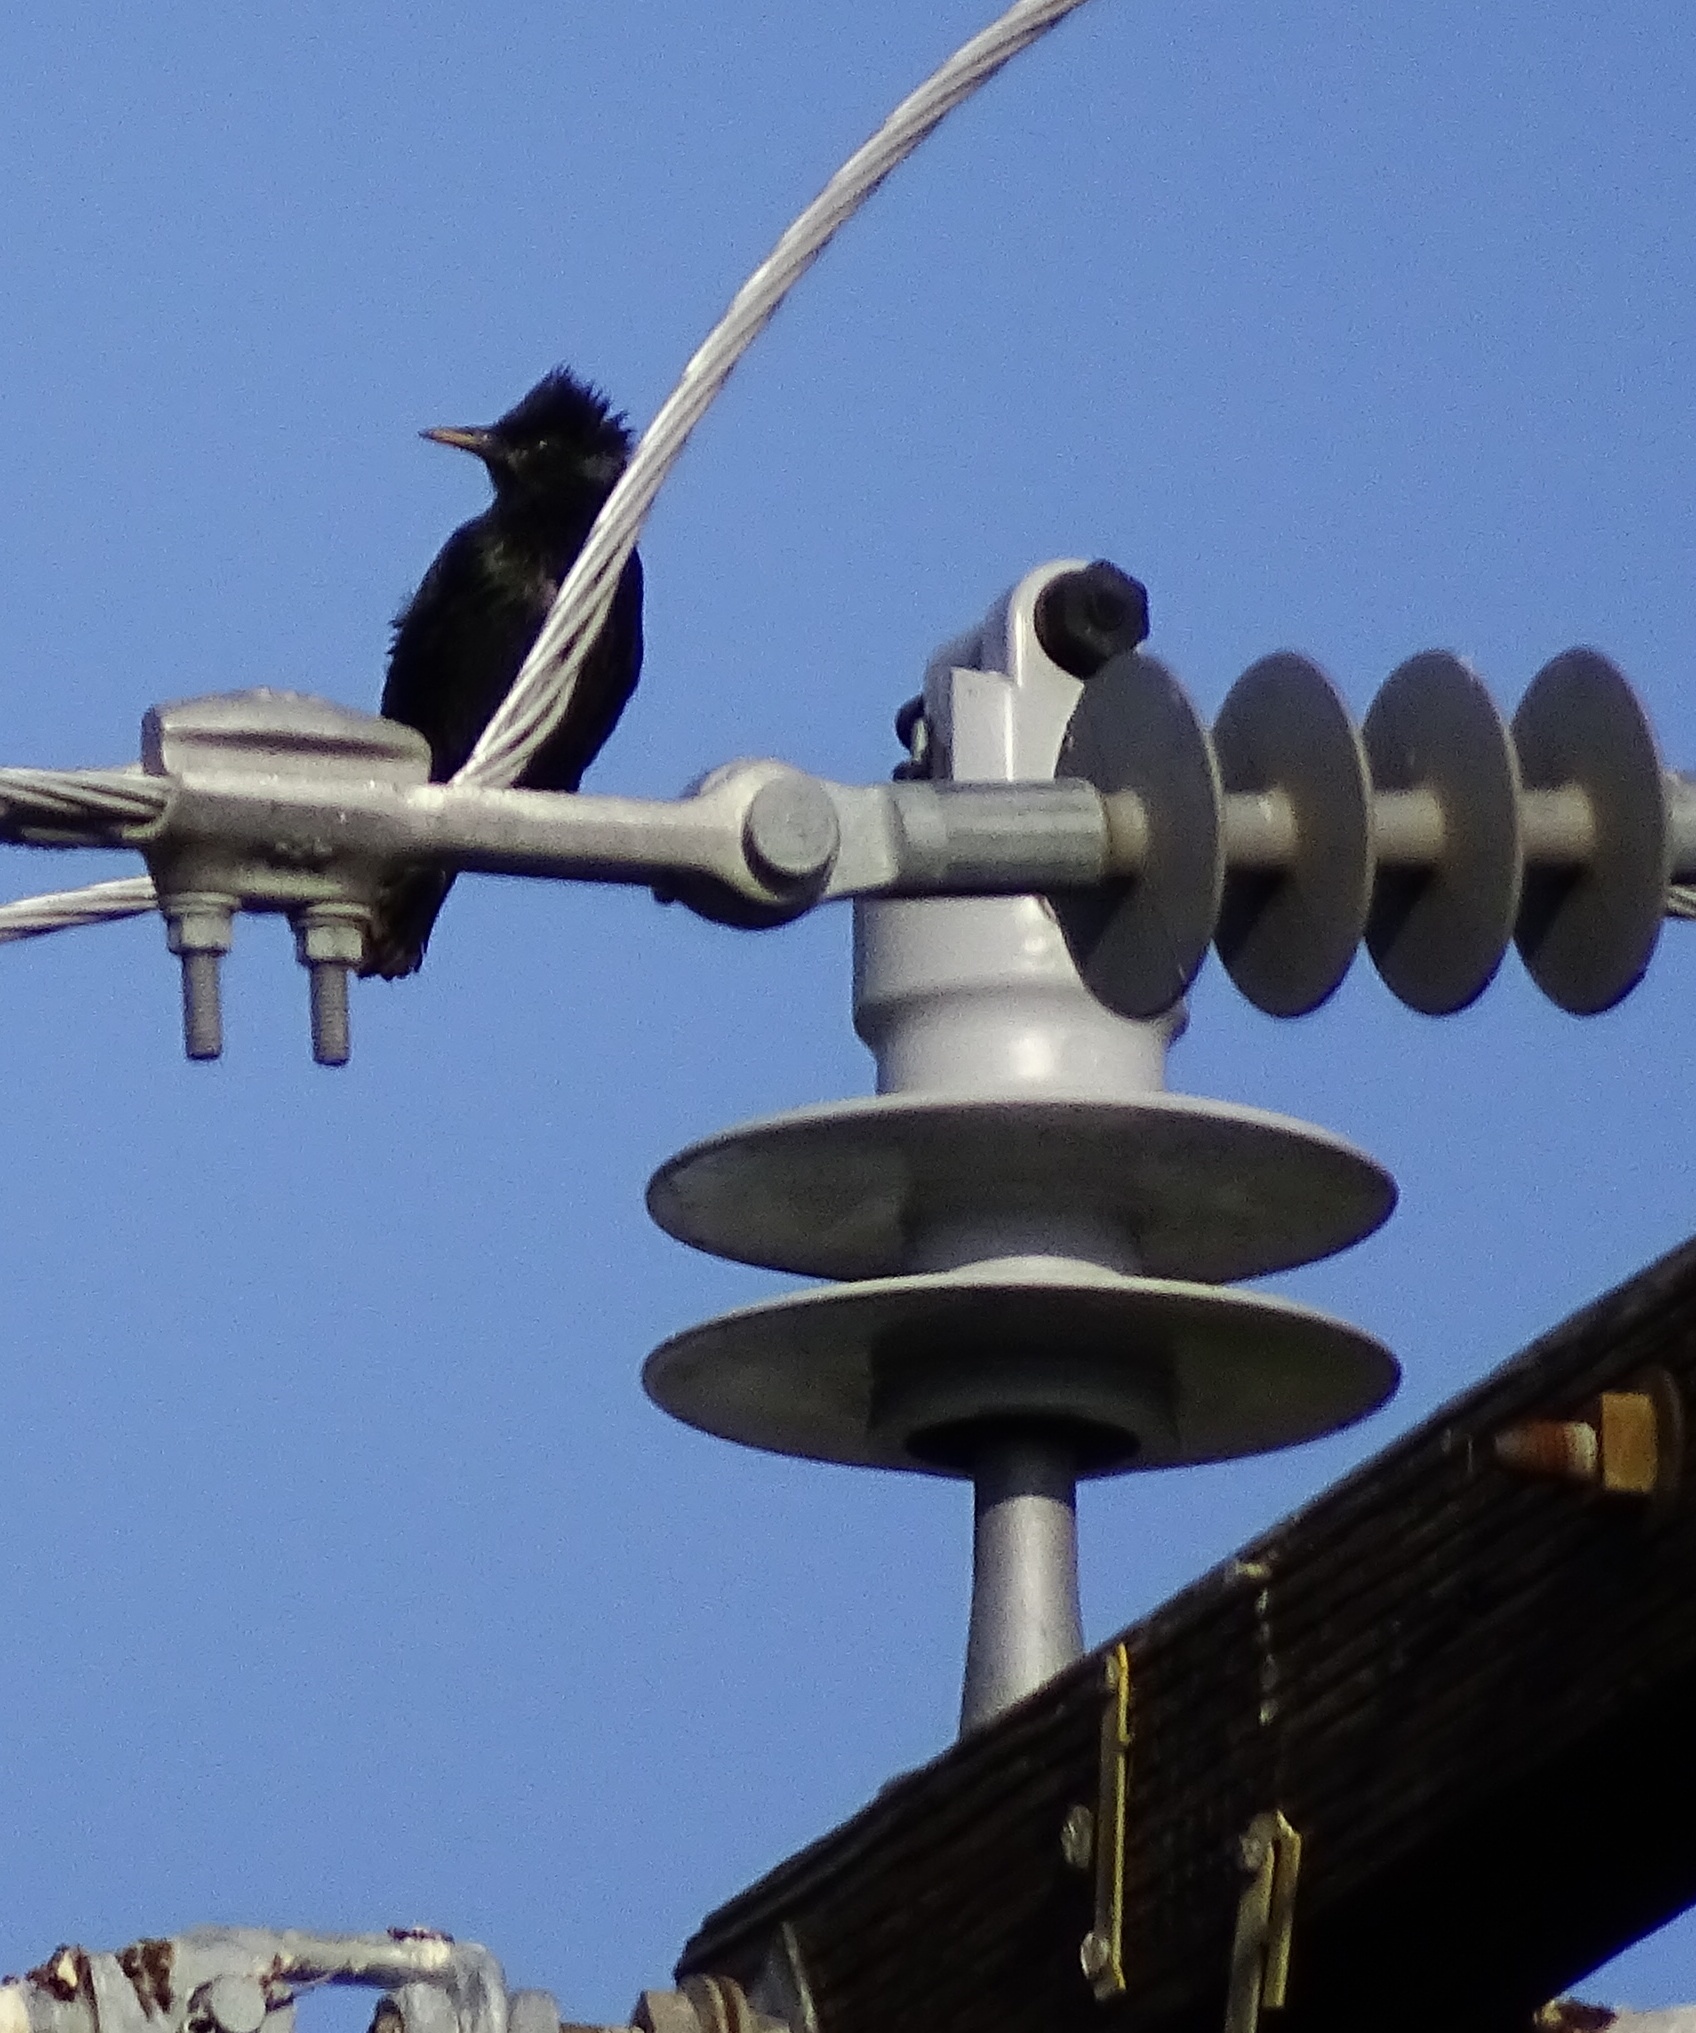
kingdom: Animalia
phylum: Chordata
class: Aves
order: Passeriformes
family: Sturnidae
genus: Sturnus
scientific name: Sturnus vulgaris
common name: Common starling
